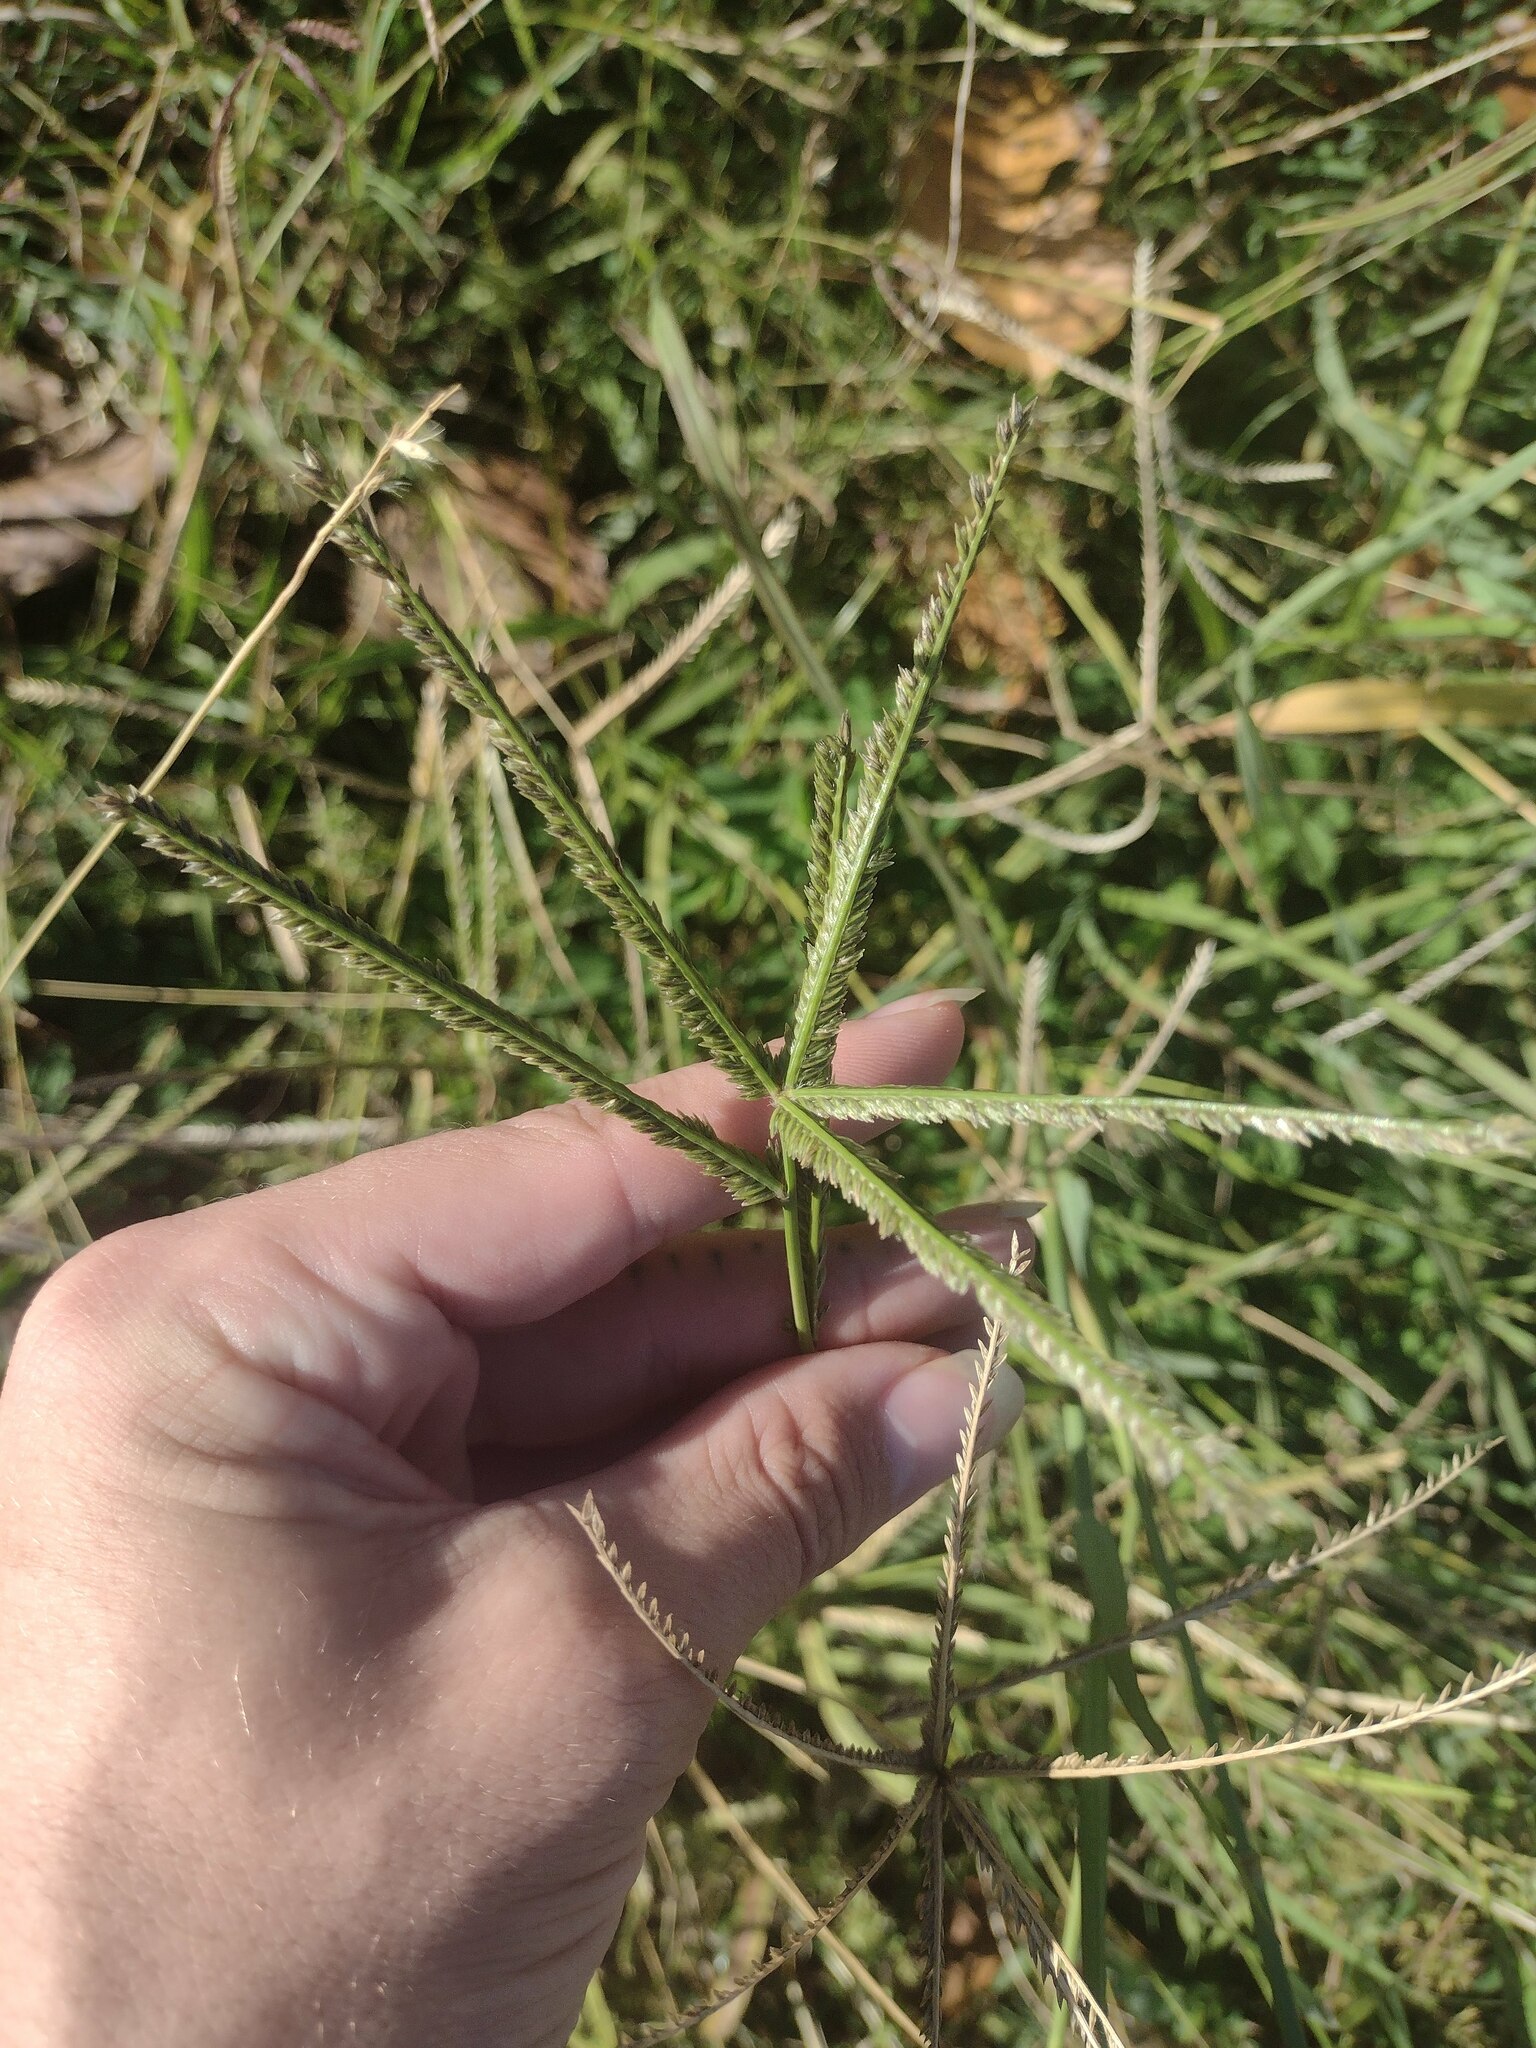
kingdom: Plantae
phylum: Tracheophyta
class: Liliopsida
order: Poales
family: Poaceae
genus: Eleusine
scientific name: Eleusine indica
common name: Yard-grass
